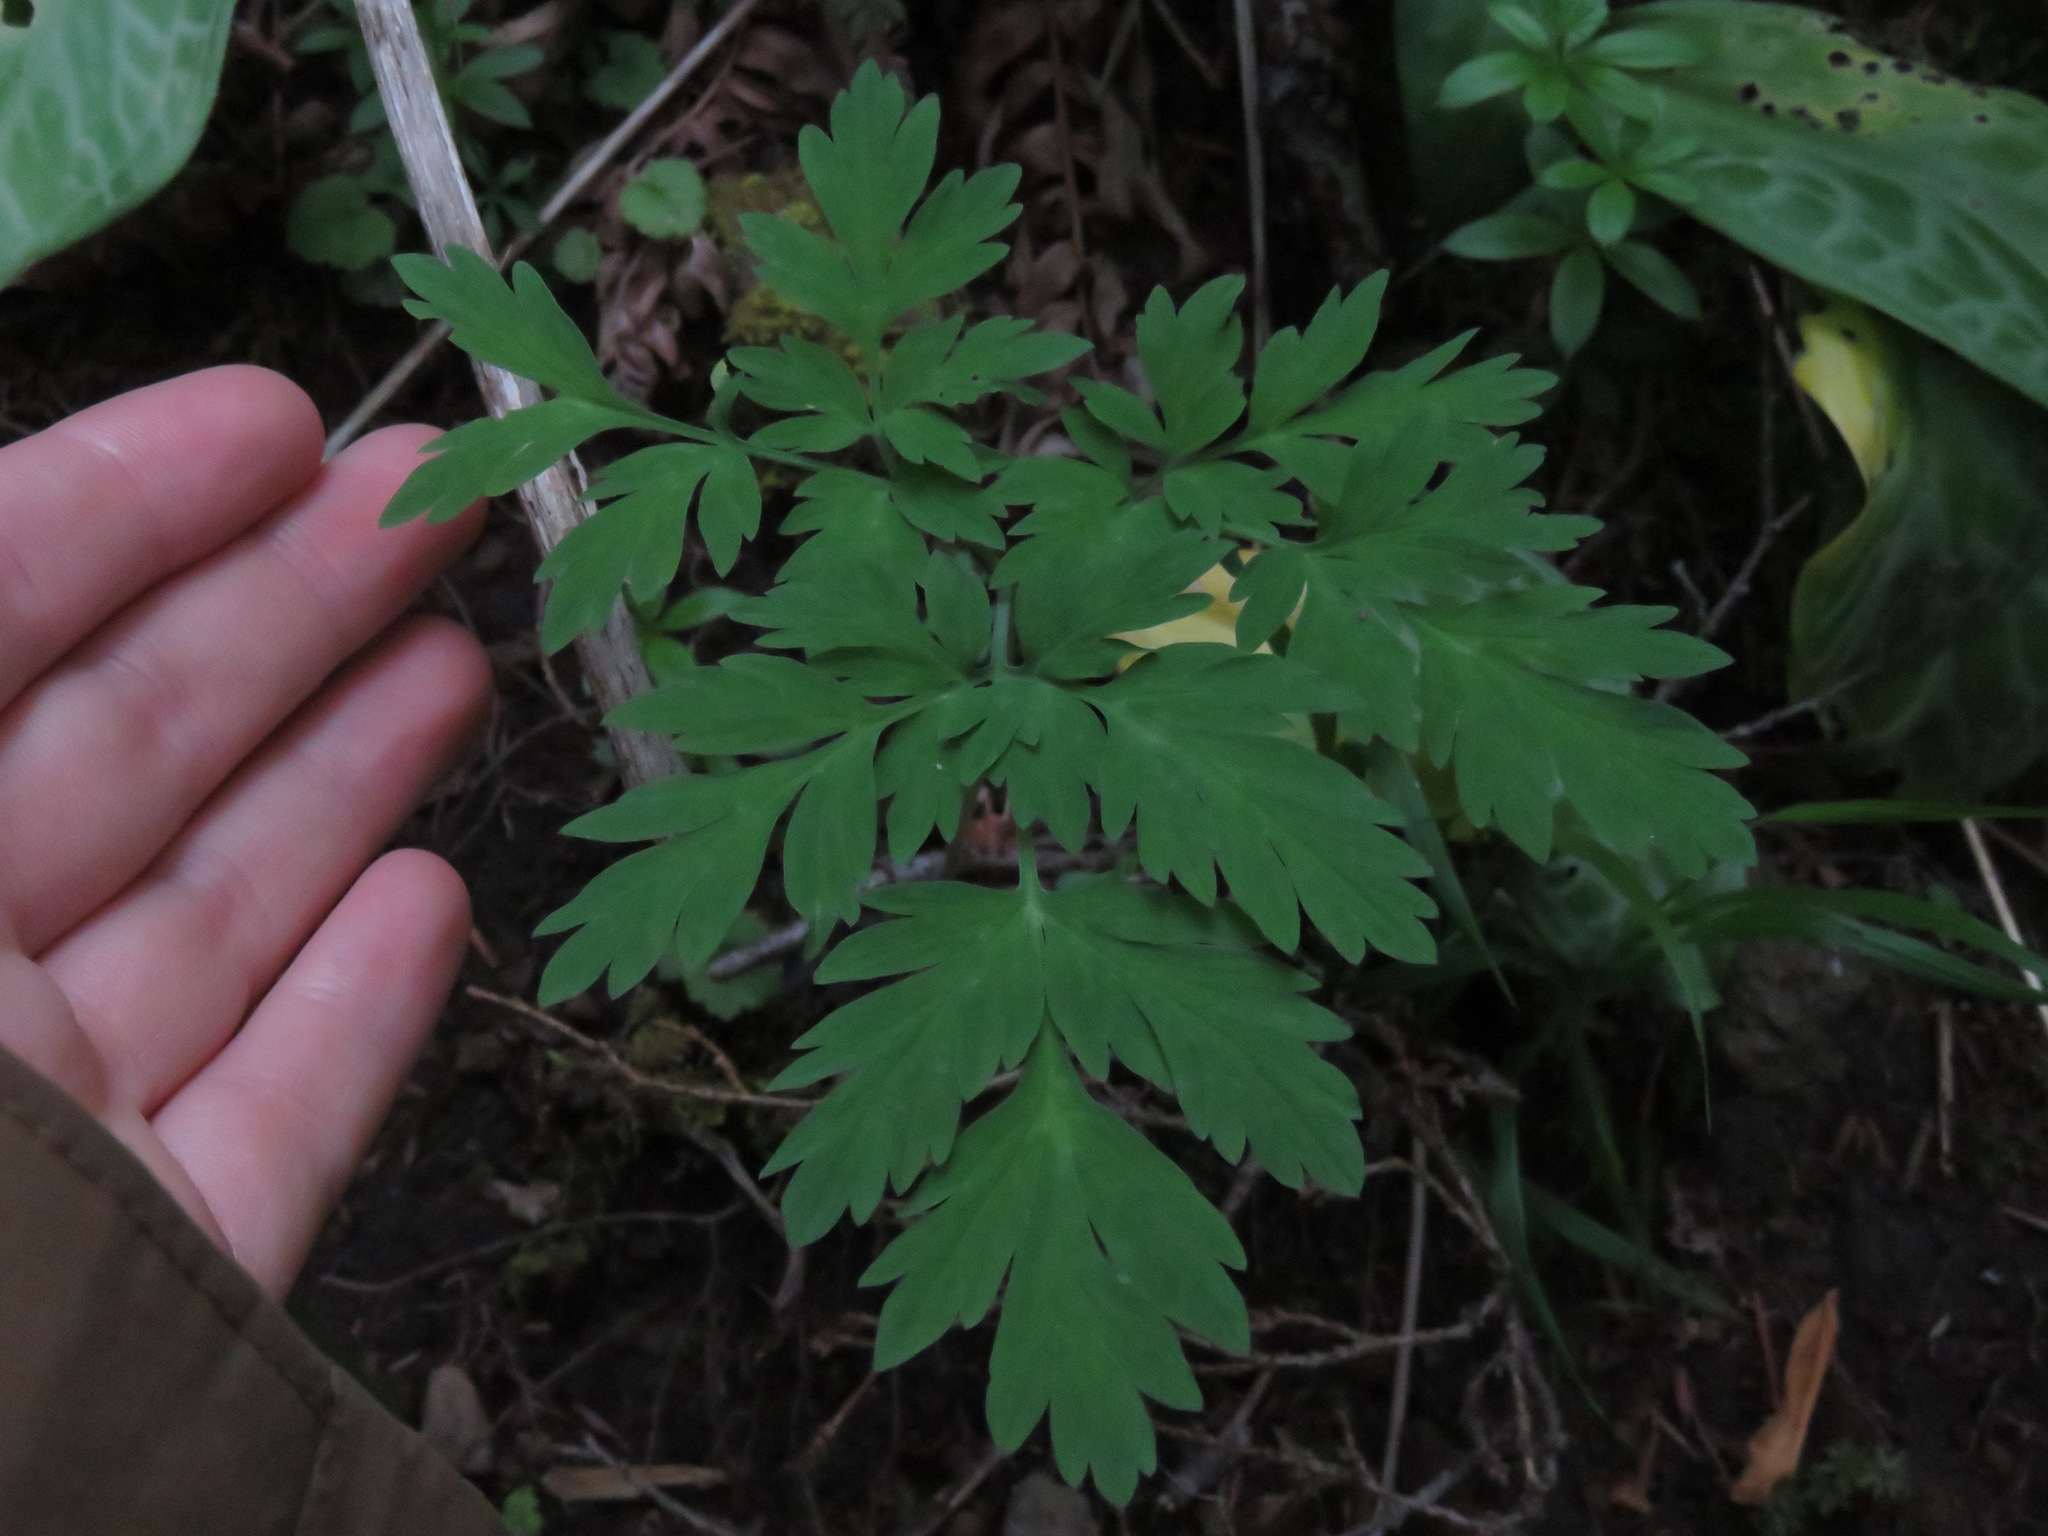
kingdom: Plantae
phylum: Tracheophyta
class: Magnoliopsida
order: Ranunculales
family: Papaveraceae
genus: Dicentra
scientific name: Dicentra formosa
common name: Bleeding-heart
